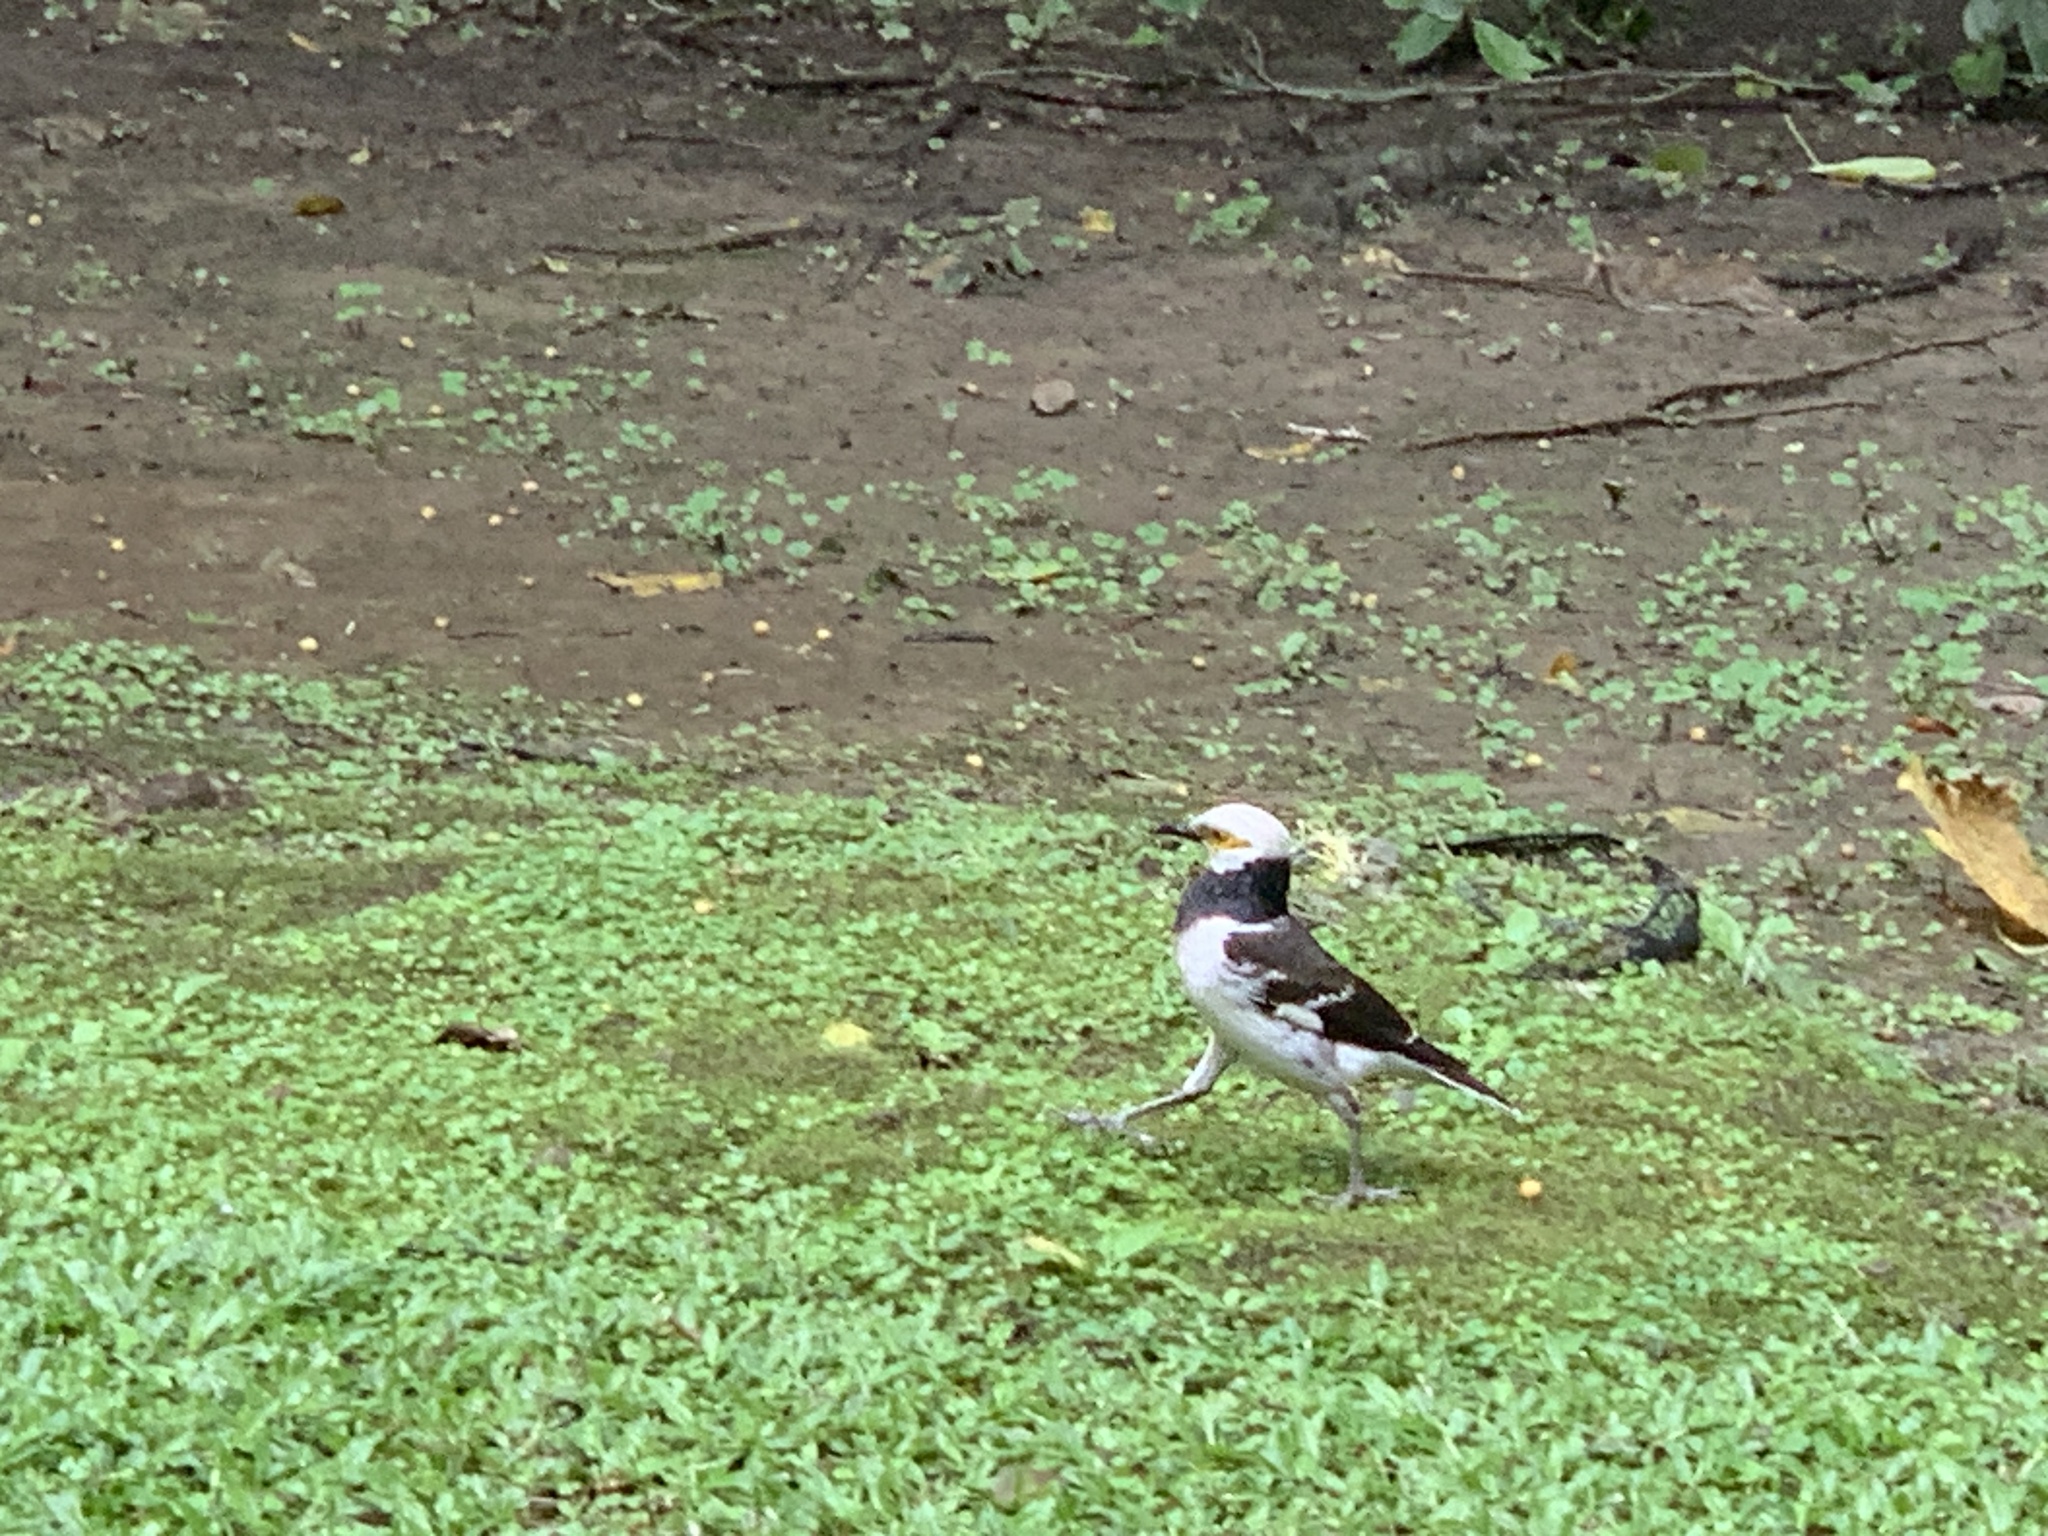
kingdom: Animalia
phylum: Chordata
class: Aves
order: Passeriformes
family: Sturnidae
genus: Gracupica
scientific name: Gracupica nigricollis
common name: Black-collared starling
